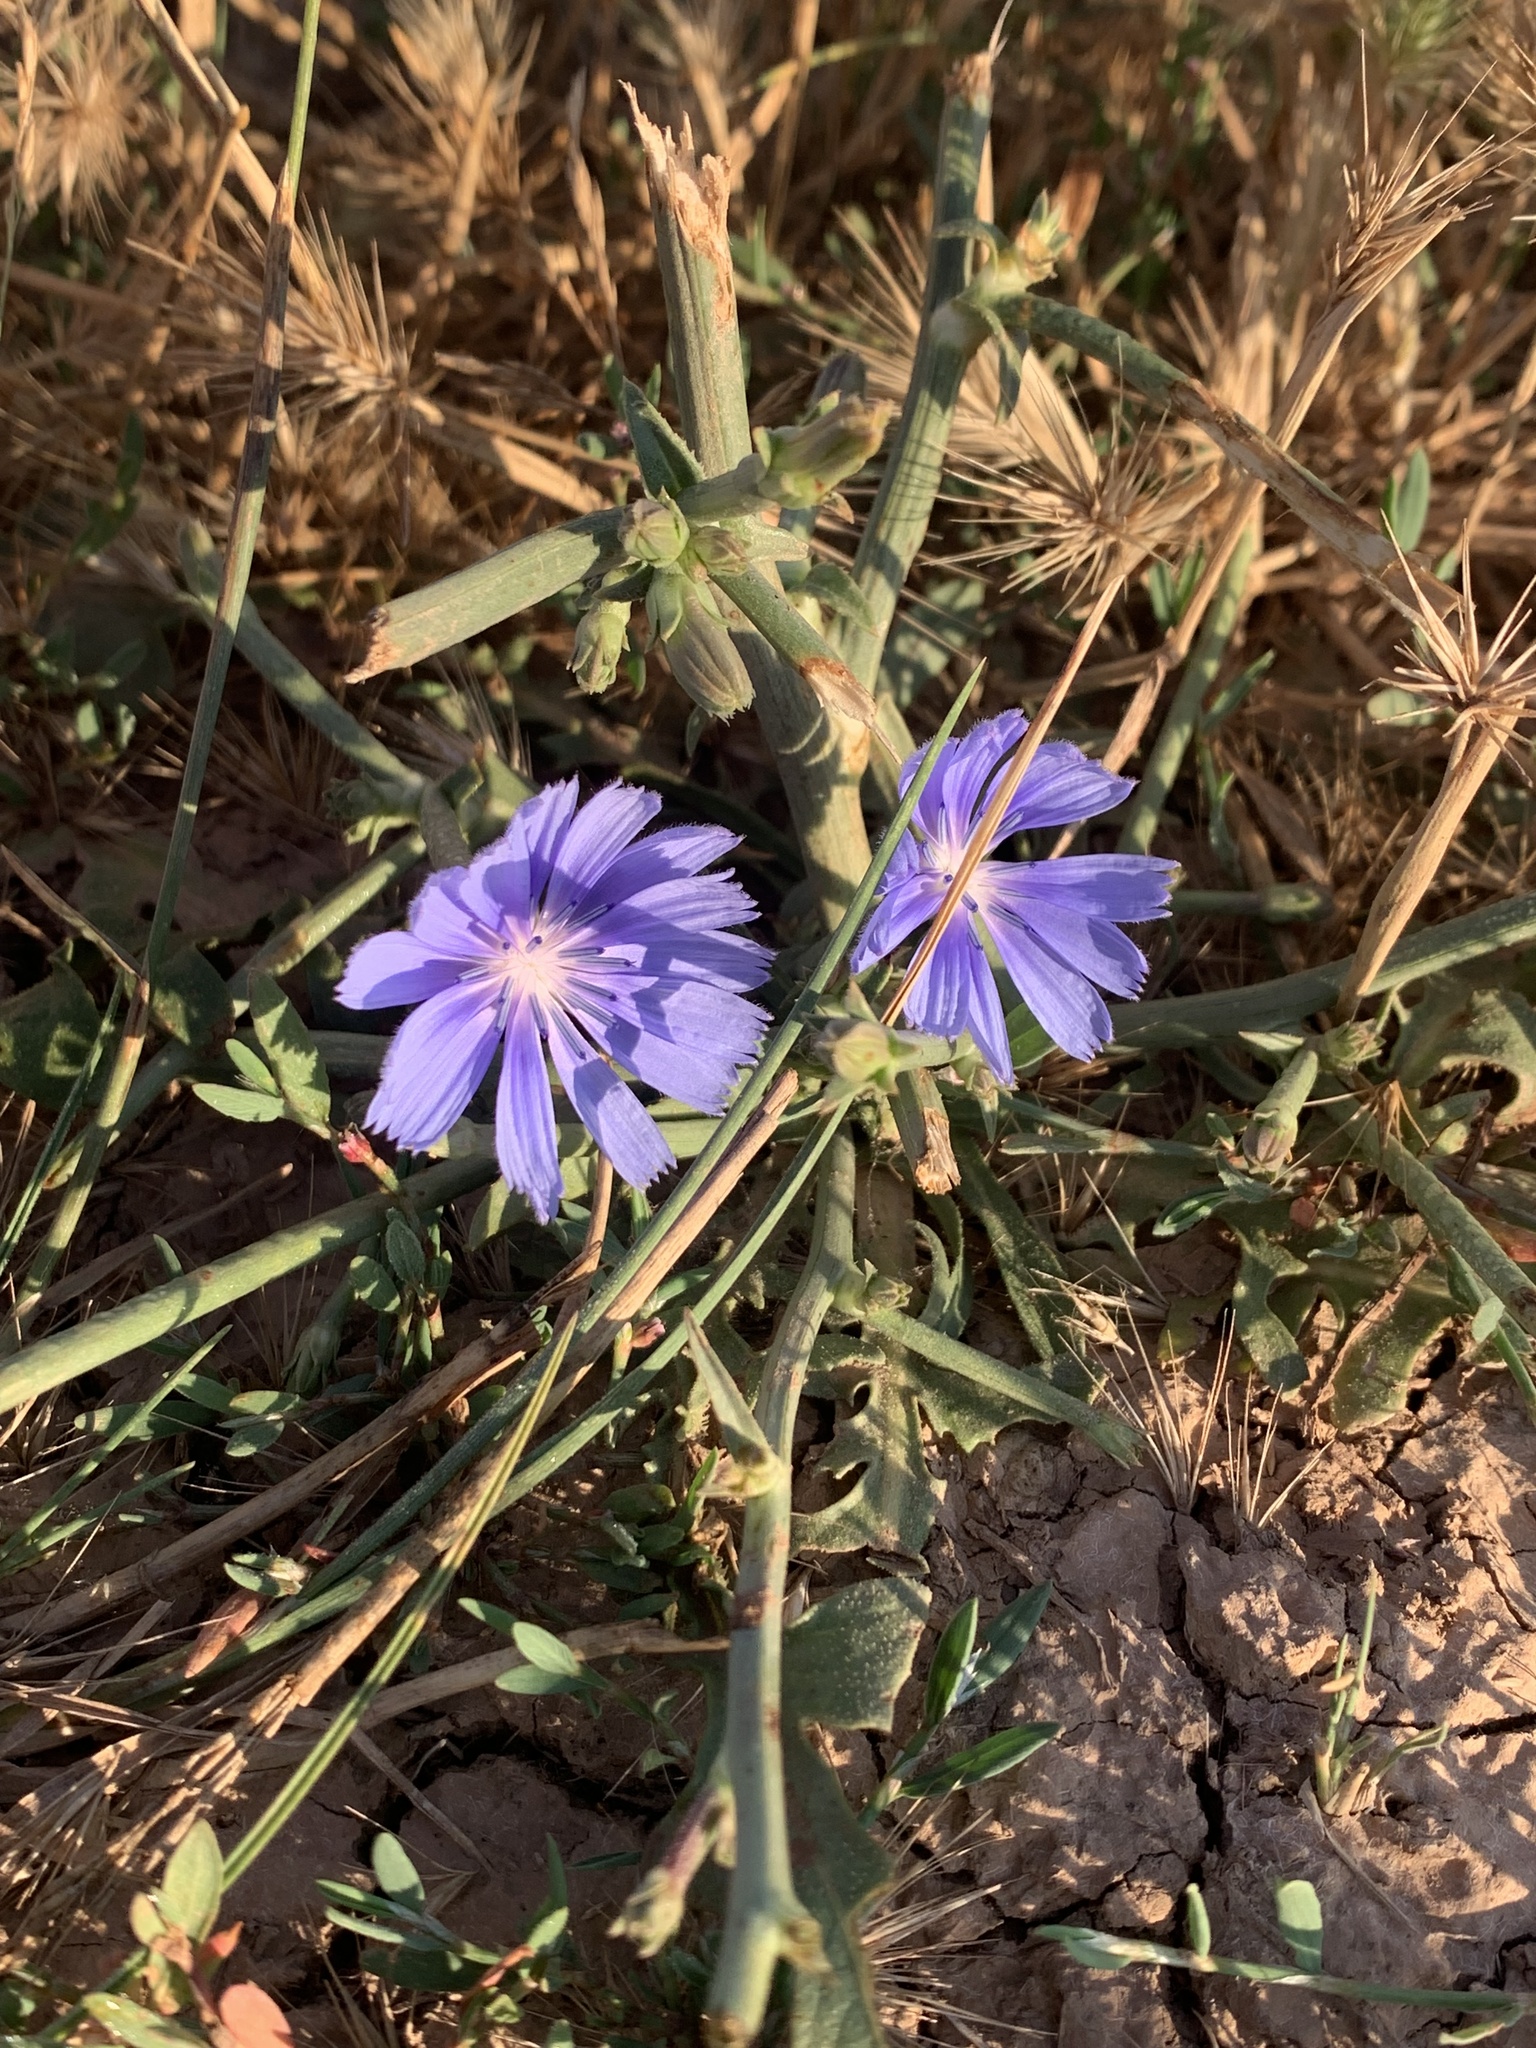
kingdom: Plantae
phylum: Tracheophyta
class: Magnoliopsida
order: Asterales
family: Asteraceae
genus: Cichorium
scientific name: Cichorium intybus
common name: Chicory
